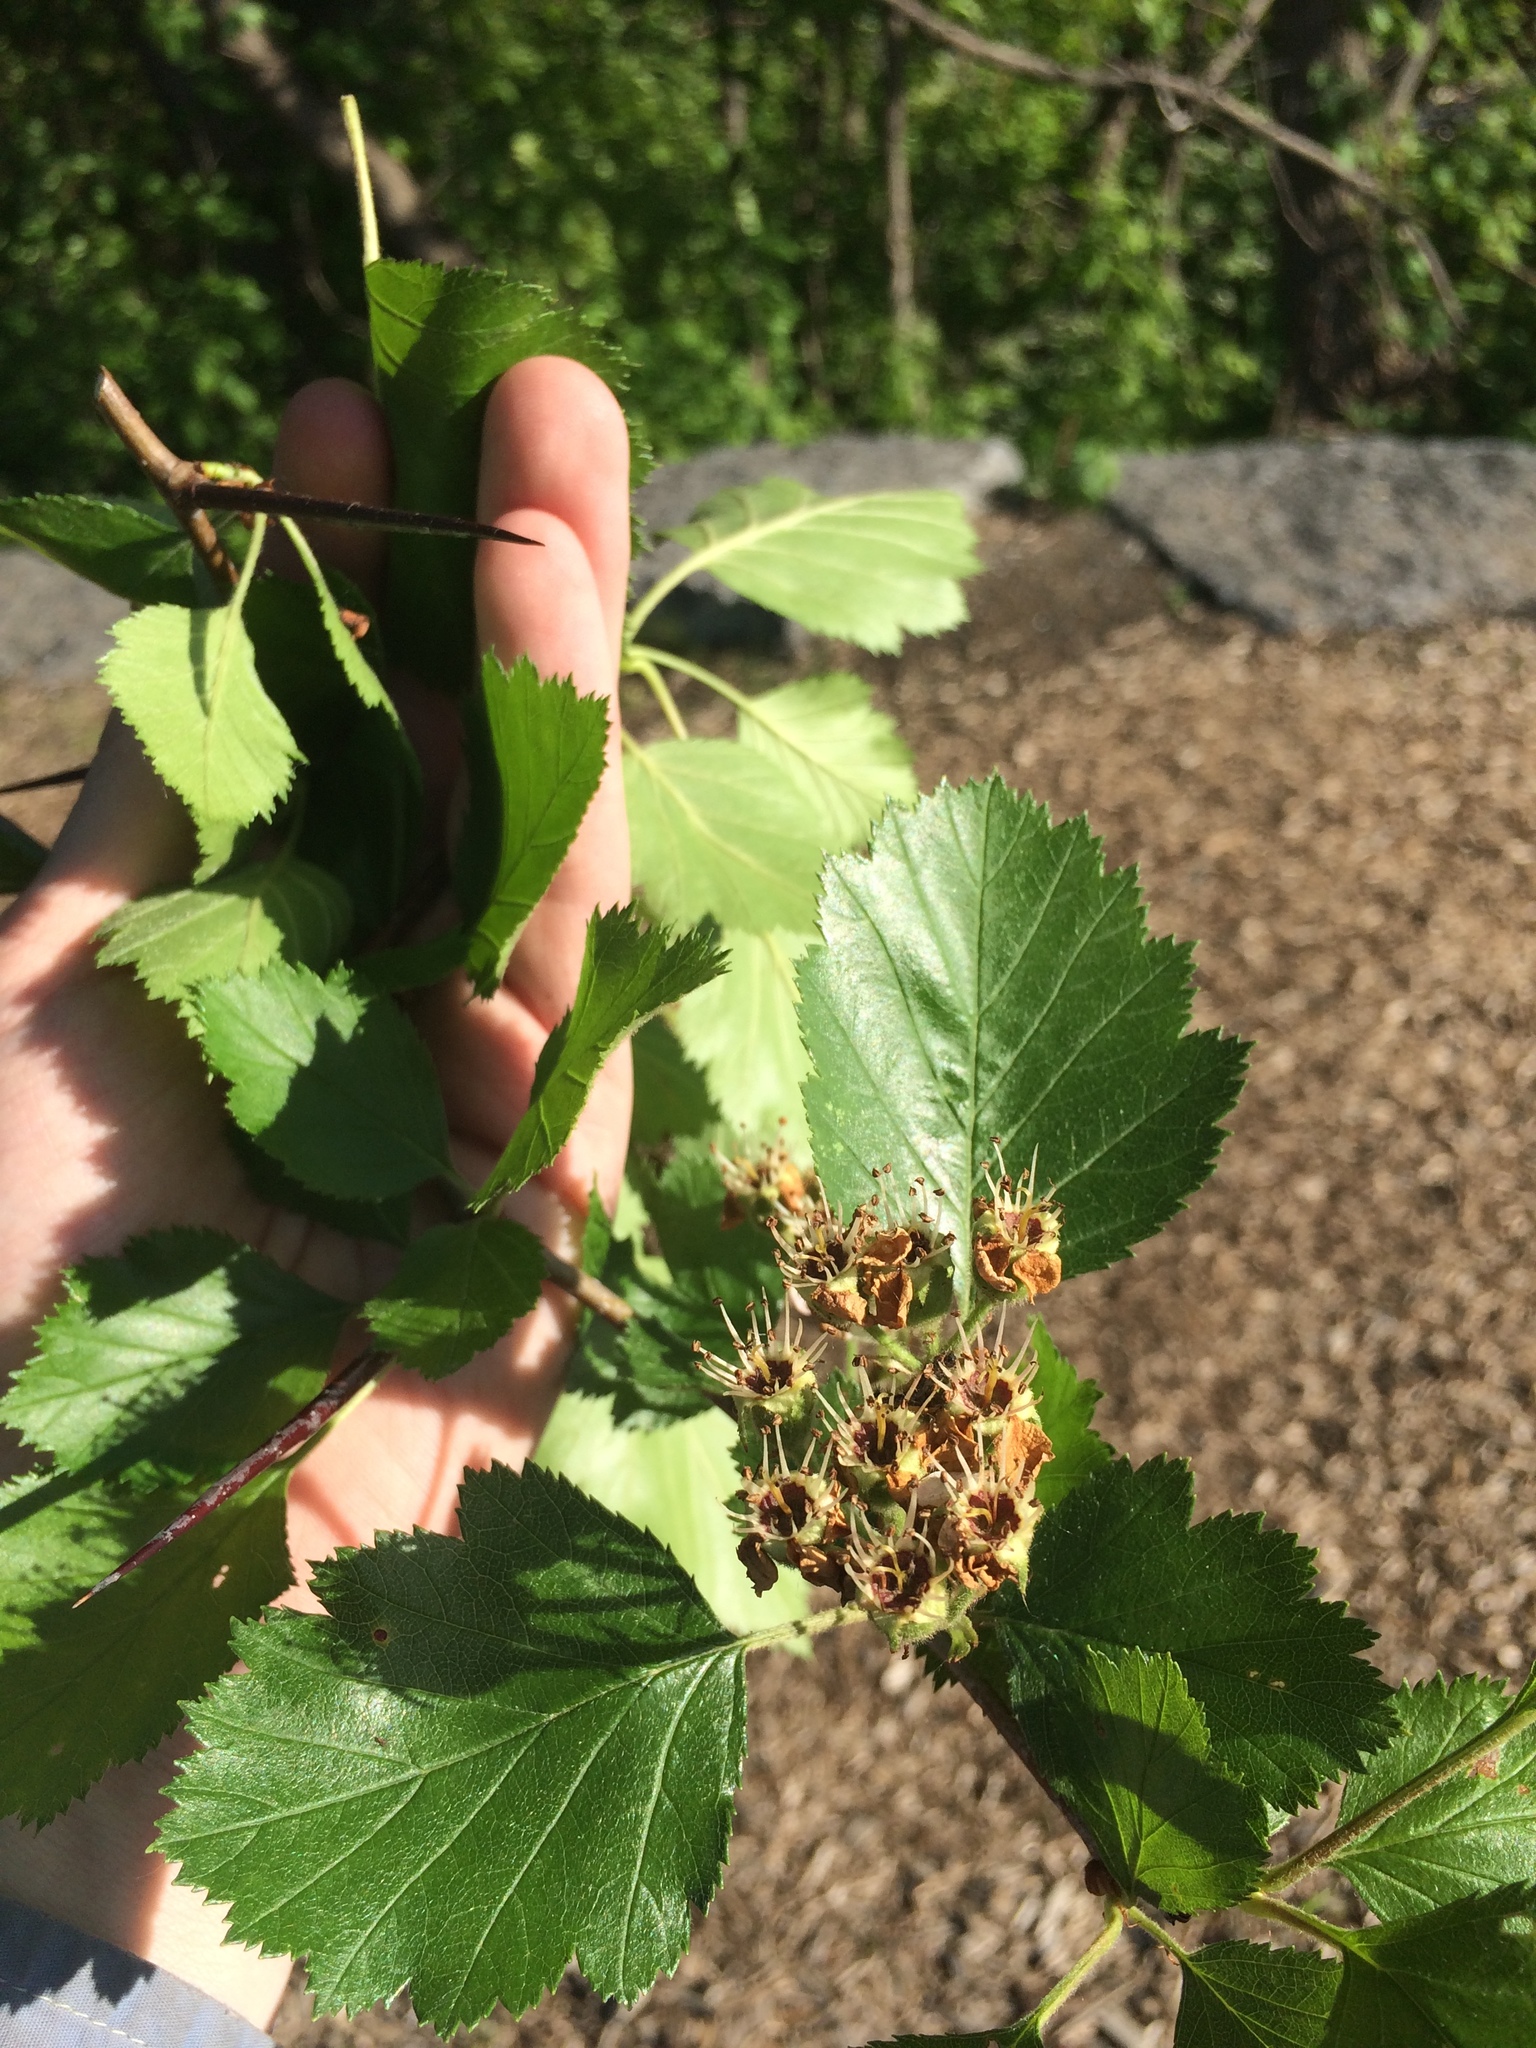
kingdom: Plantae
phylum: Tracheophyta
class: Magnoliopsida
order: Rosales
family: Rosaceae
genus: Crataegus
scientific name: Crataegus submollis
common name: Hairy cockspurthorn
